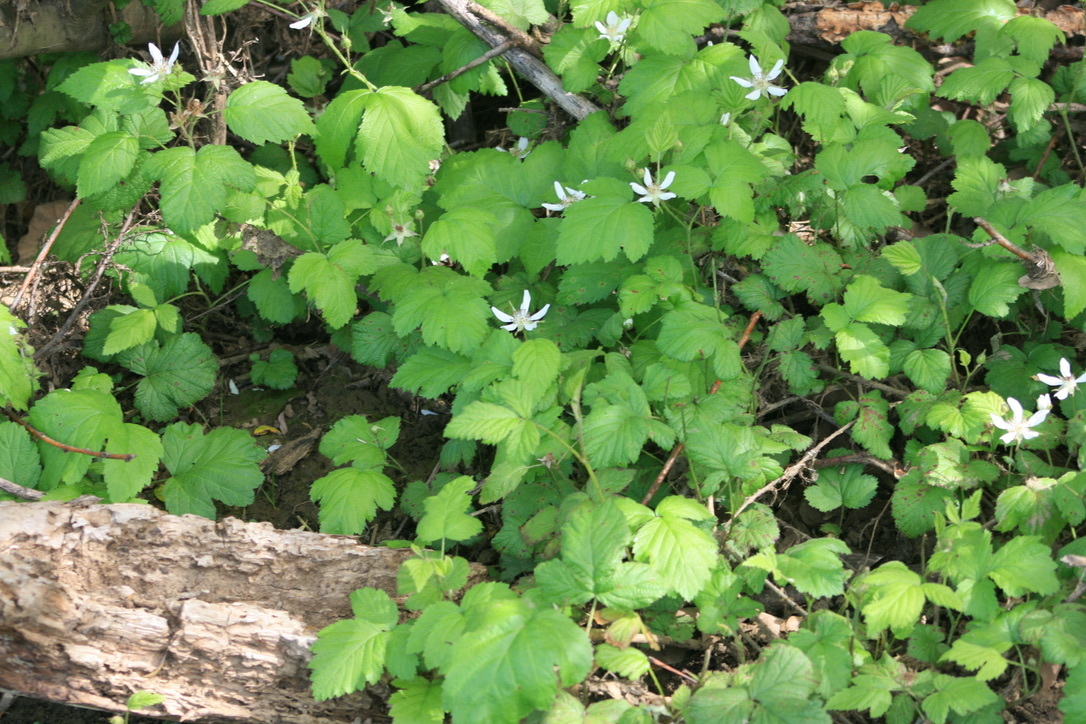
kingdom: Plantae
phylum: Tracheophyta
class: Magnoliopsida
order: Rosales
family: Rosaceae
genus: Rubus
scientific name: Rubus ursinus
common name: Pacific blackberry
